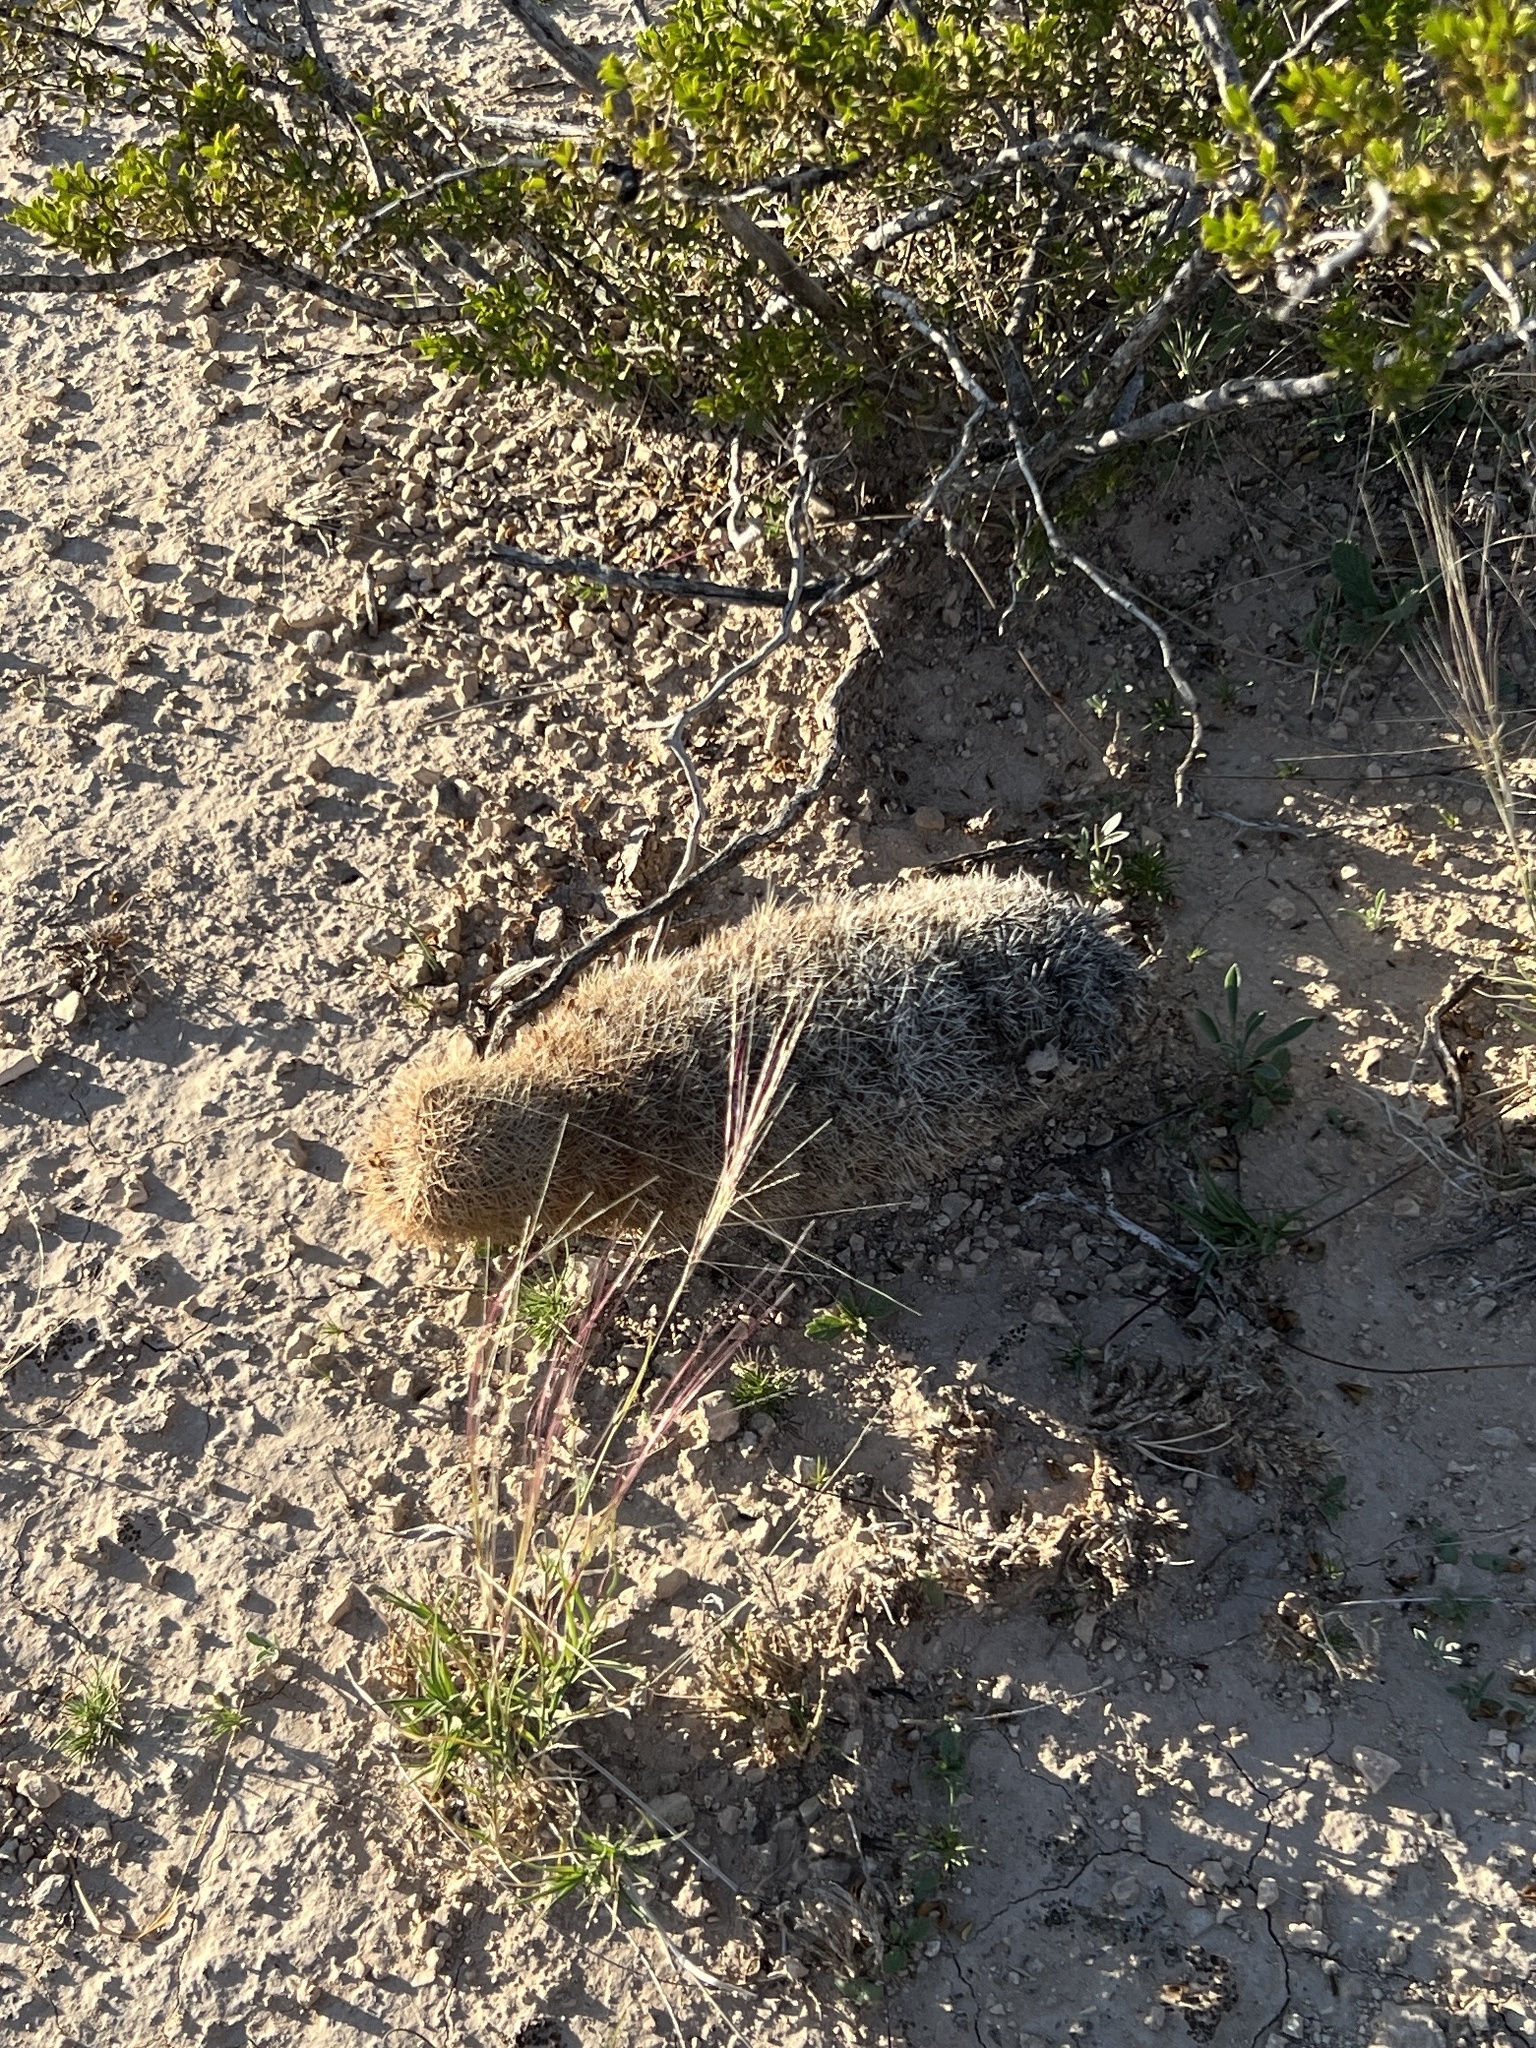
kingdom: Plantae
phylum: Tracheophyta
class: Magnoliopsida
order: Caryophyllales
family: Cactaceae
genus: Echinocereus
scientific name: Echinocereus dasyacanthus
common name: Spiny hedgehog cactus
